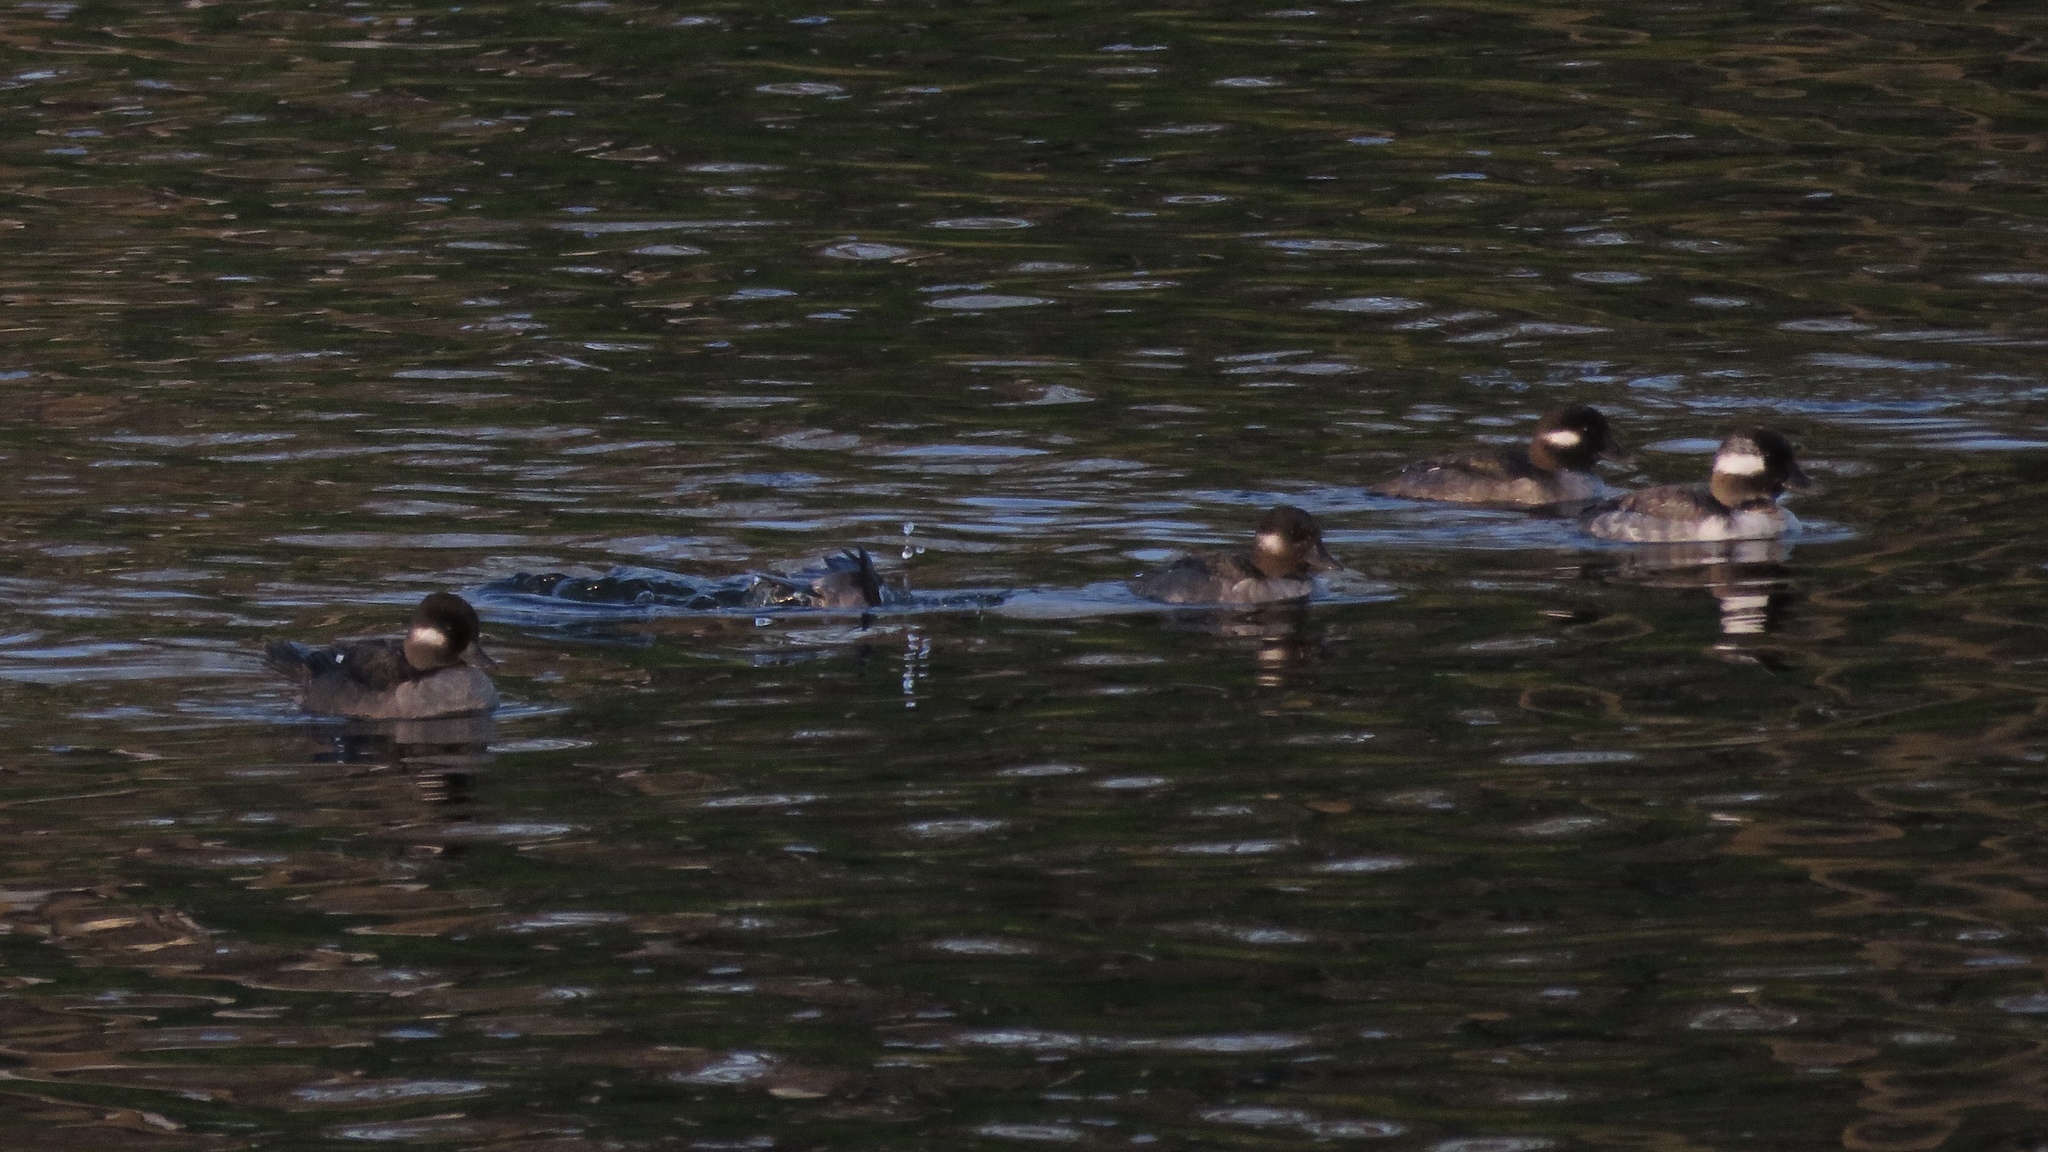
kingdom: Animalia
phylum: Chordata
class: Aves
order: Anseriformes
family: Anatidae
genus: Bucephala
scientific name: Bucephala albeola
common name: Bufflehead
